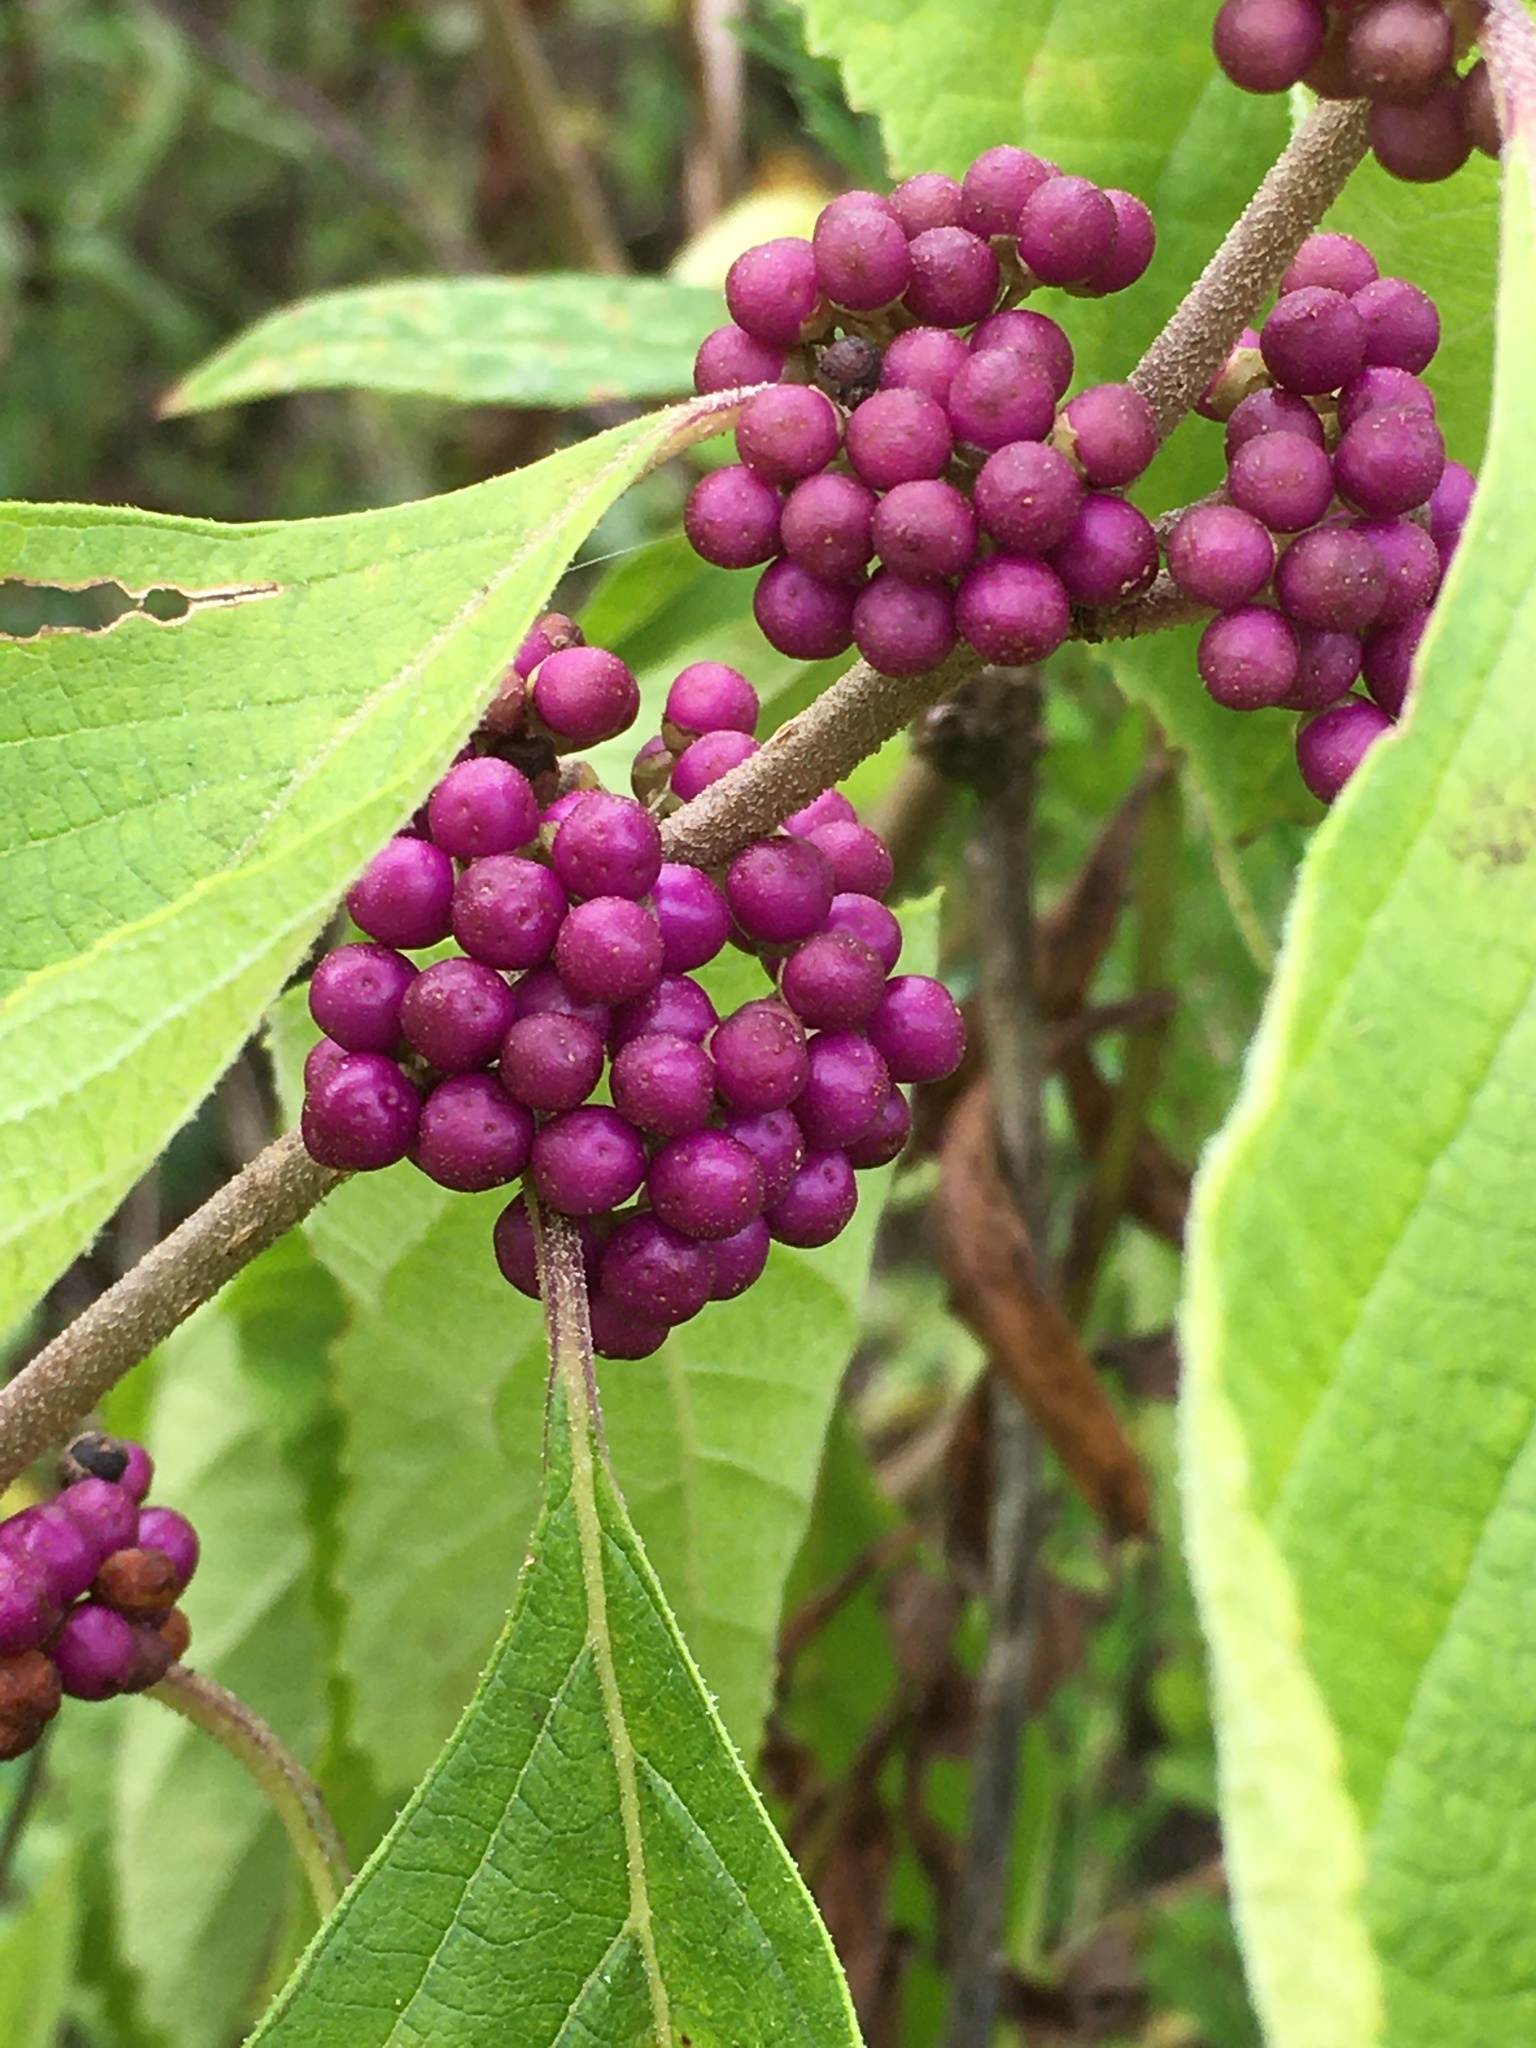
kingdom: Plantae
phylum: Tracheophyta
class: Magnoliopsida
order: Lamiales
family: Lamiaceae
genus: Callicarpa
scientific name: Callicarpa americana
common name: American beautyberry
